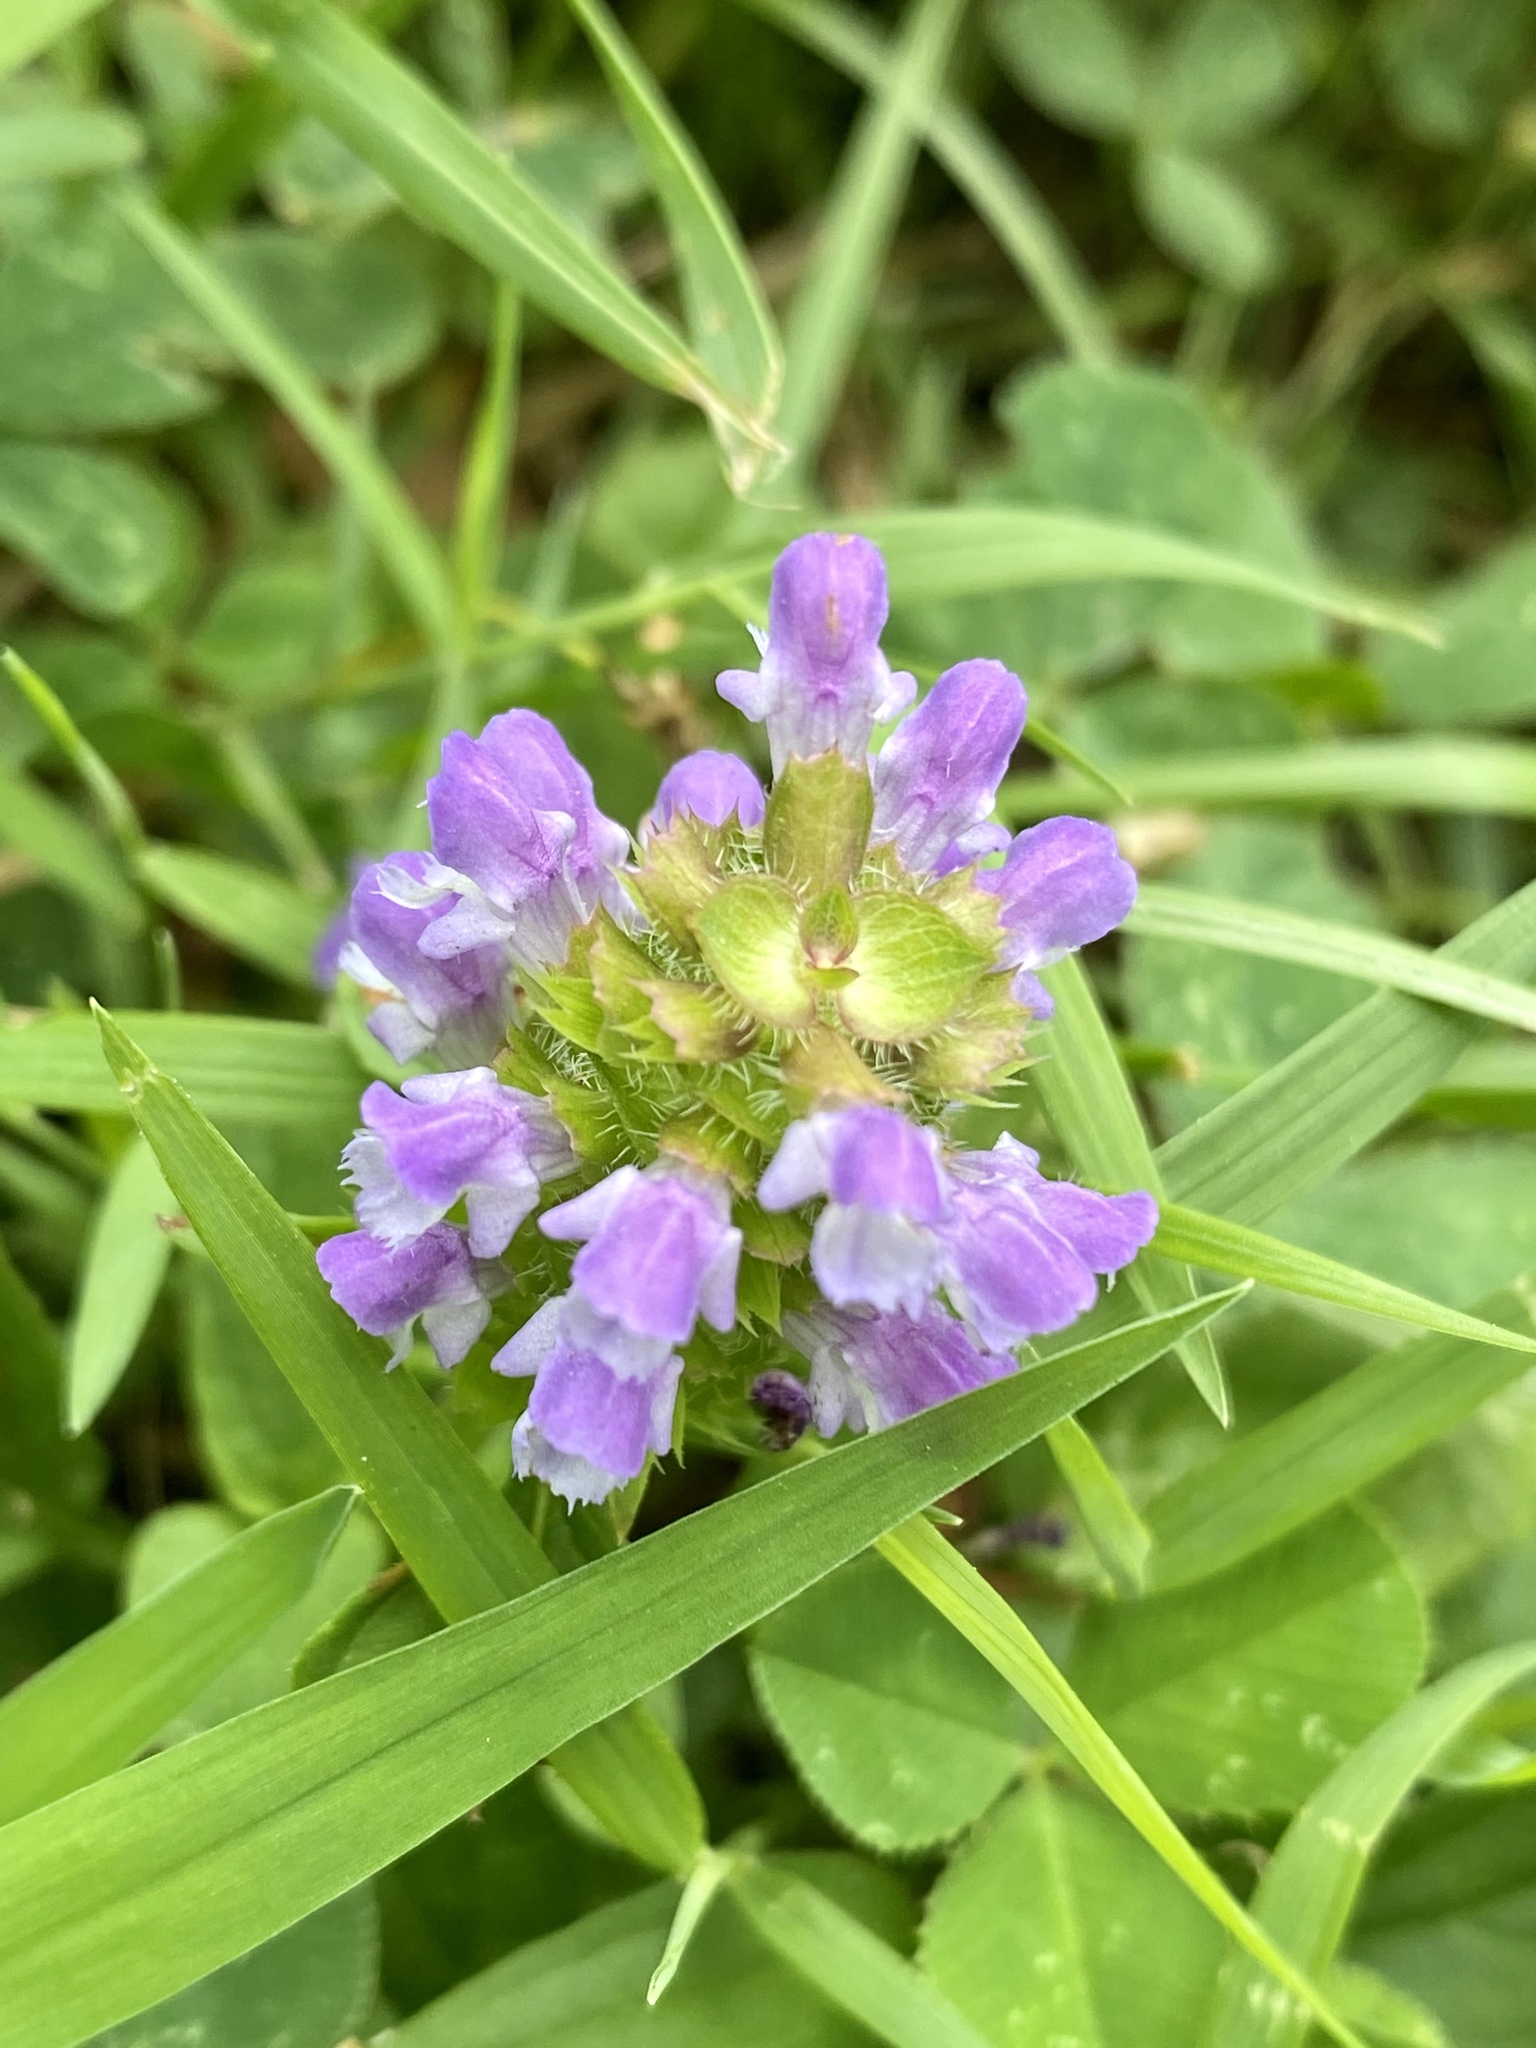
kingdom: Plantae
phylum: Tracheophyta
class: Magnoliopsida
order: Lamiales
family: Lamiaceae
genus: Prunella
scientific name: Prunella vulgaris
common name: Heal-all
